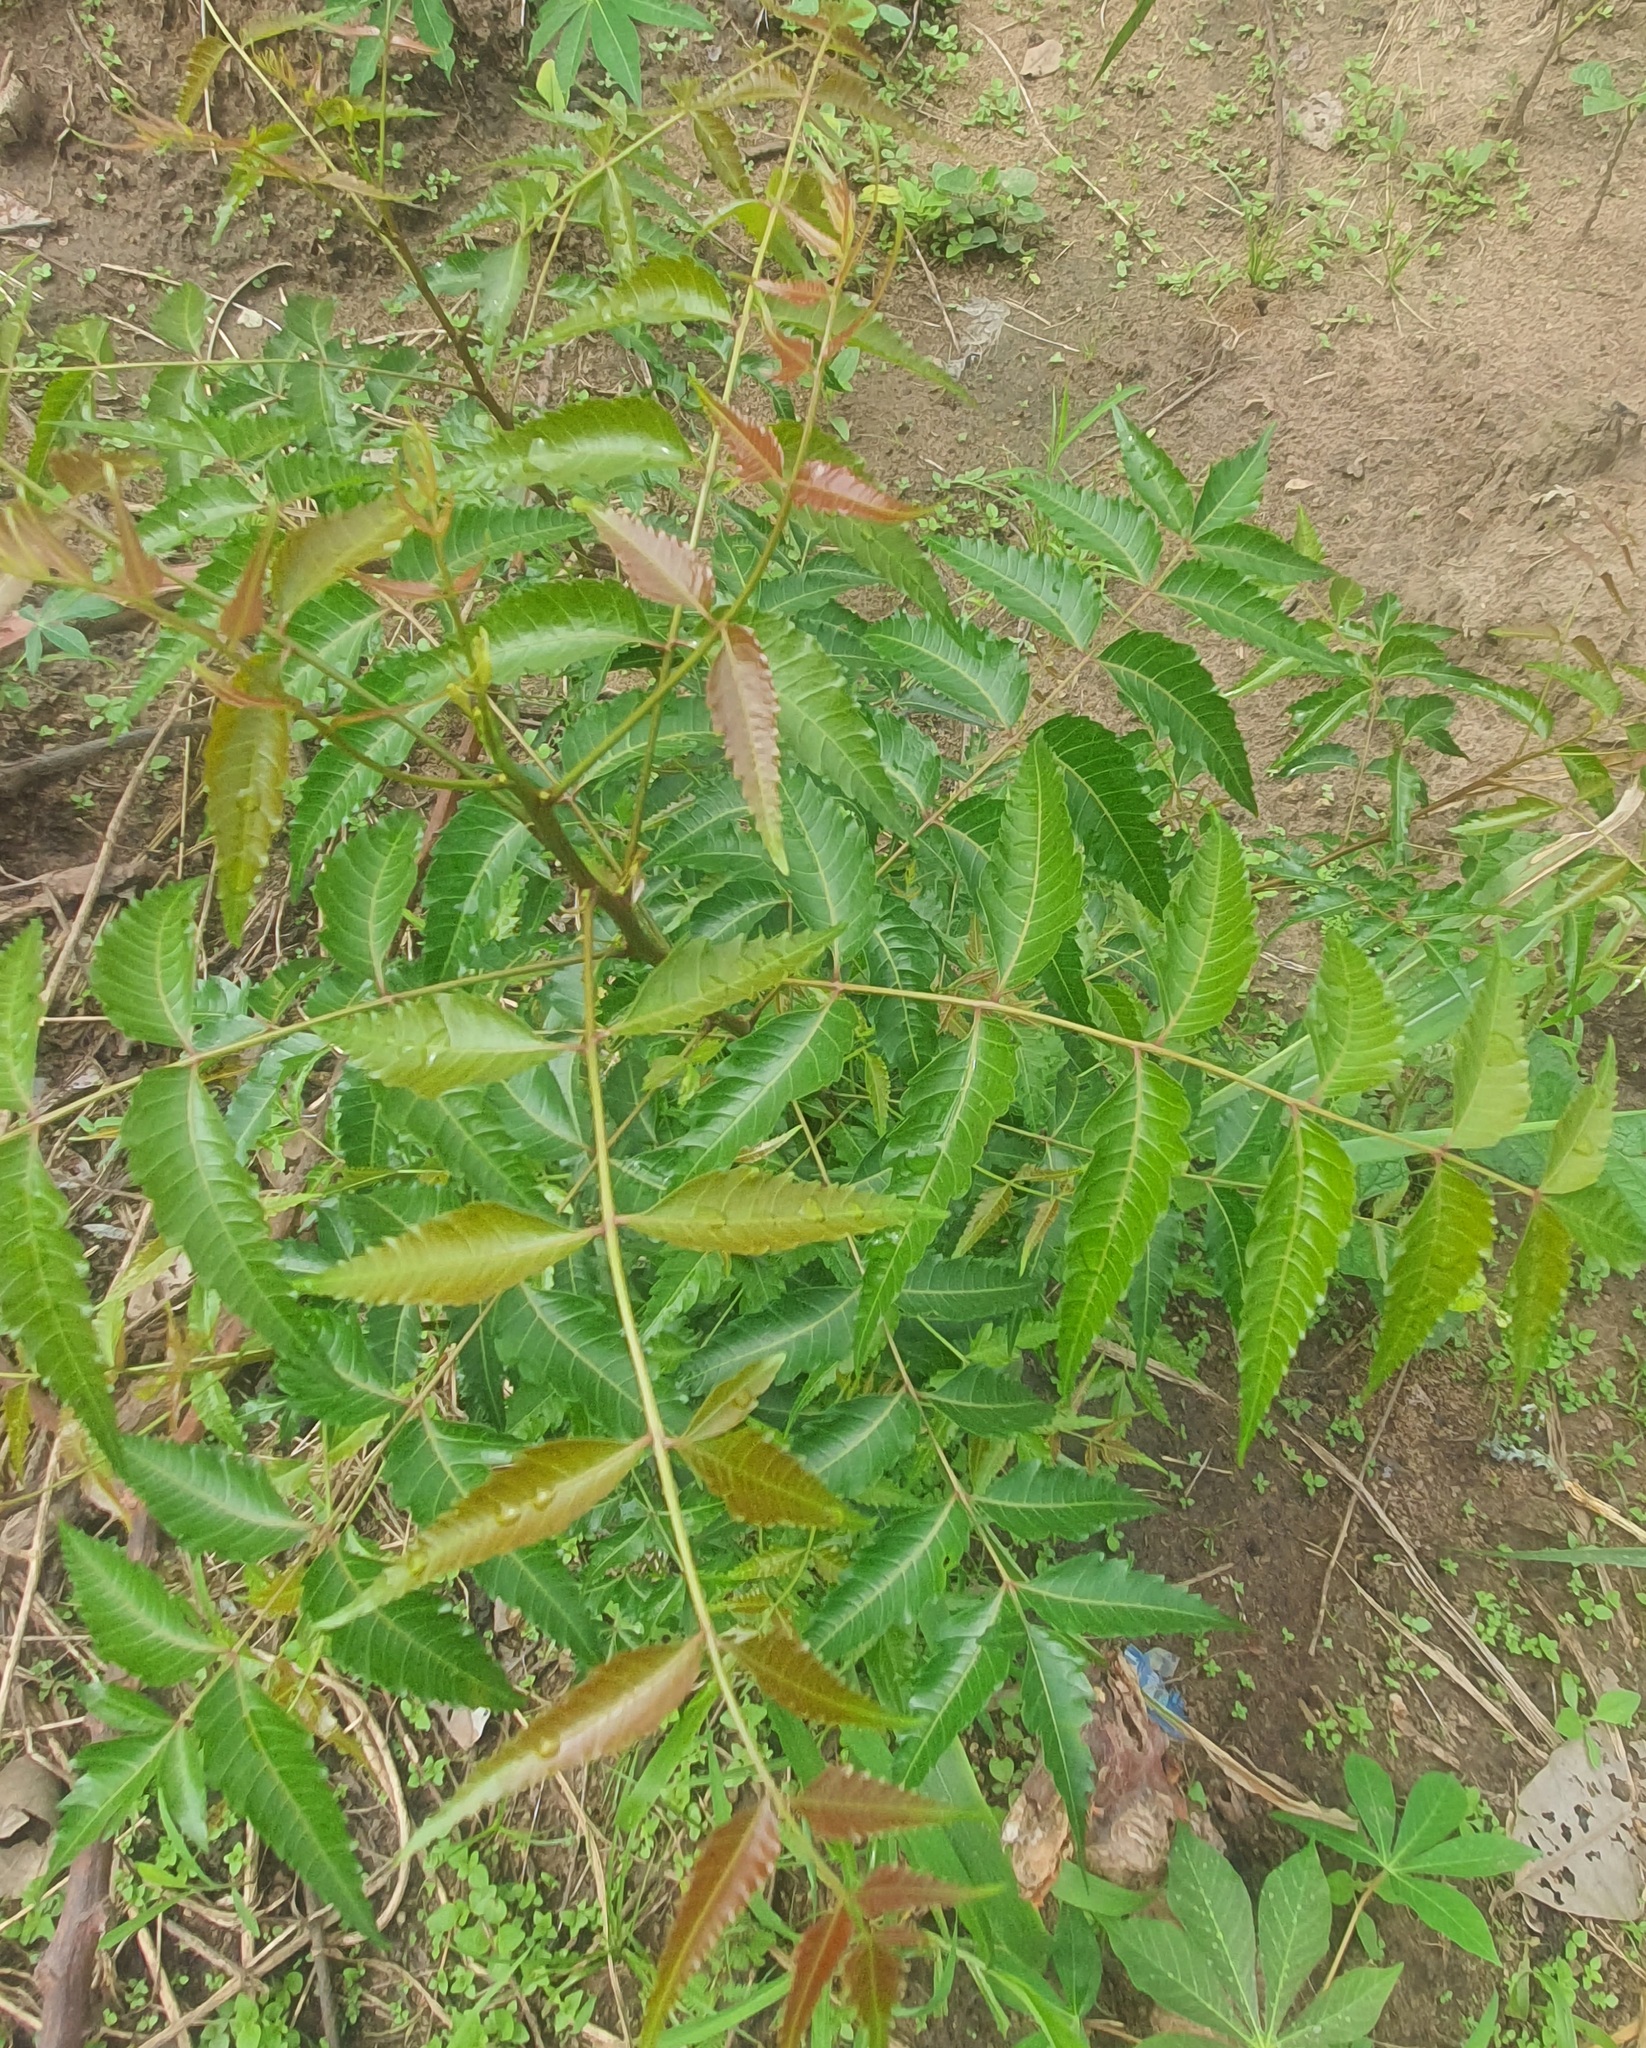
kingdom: Plantae
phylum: Tracheophyta
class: Magnoliopsida
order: Sapindales
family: Meliaceae
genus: Azadirachta
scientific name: Azadirachta indica
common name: Neem
